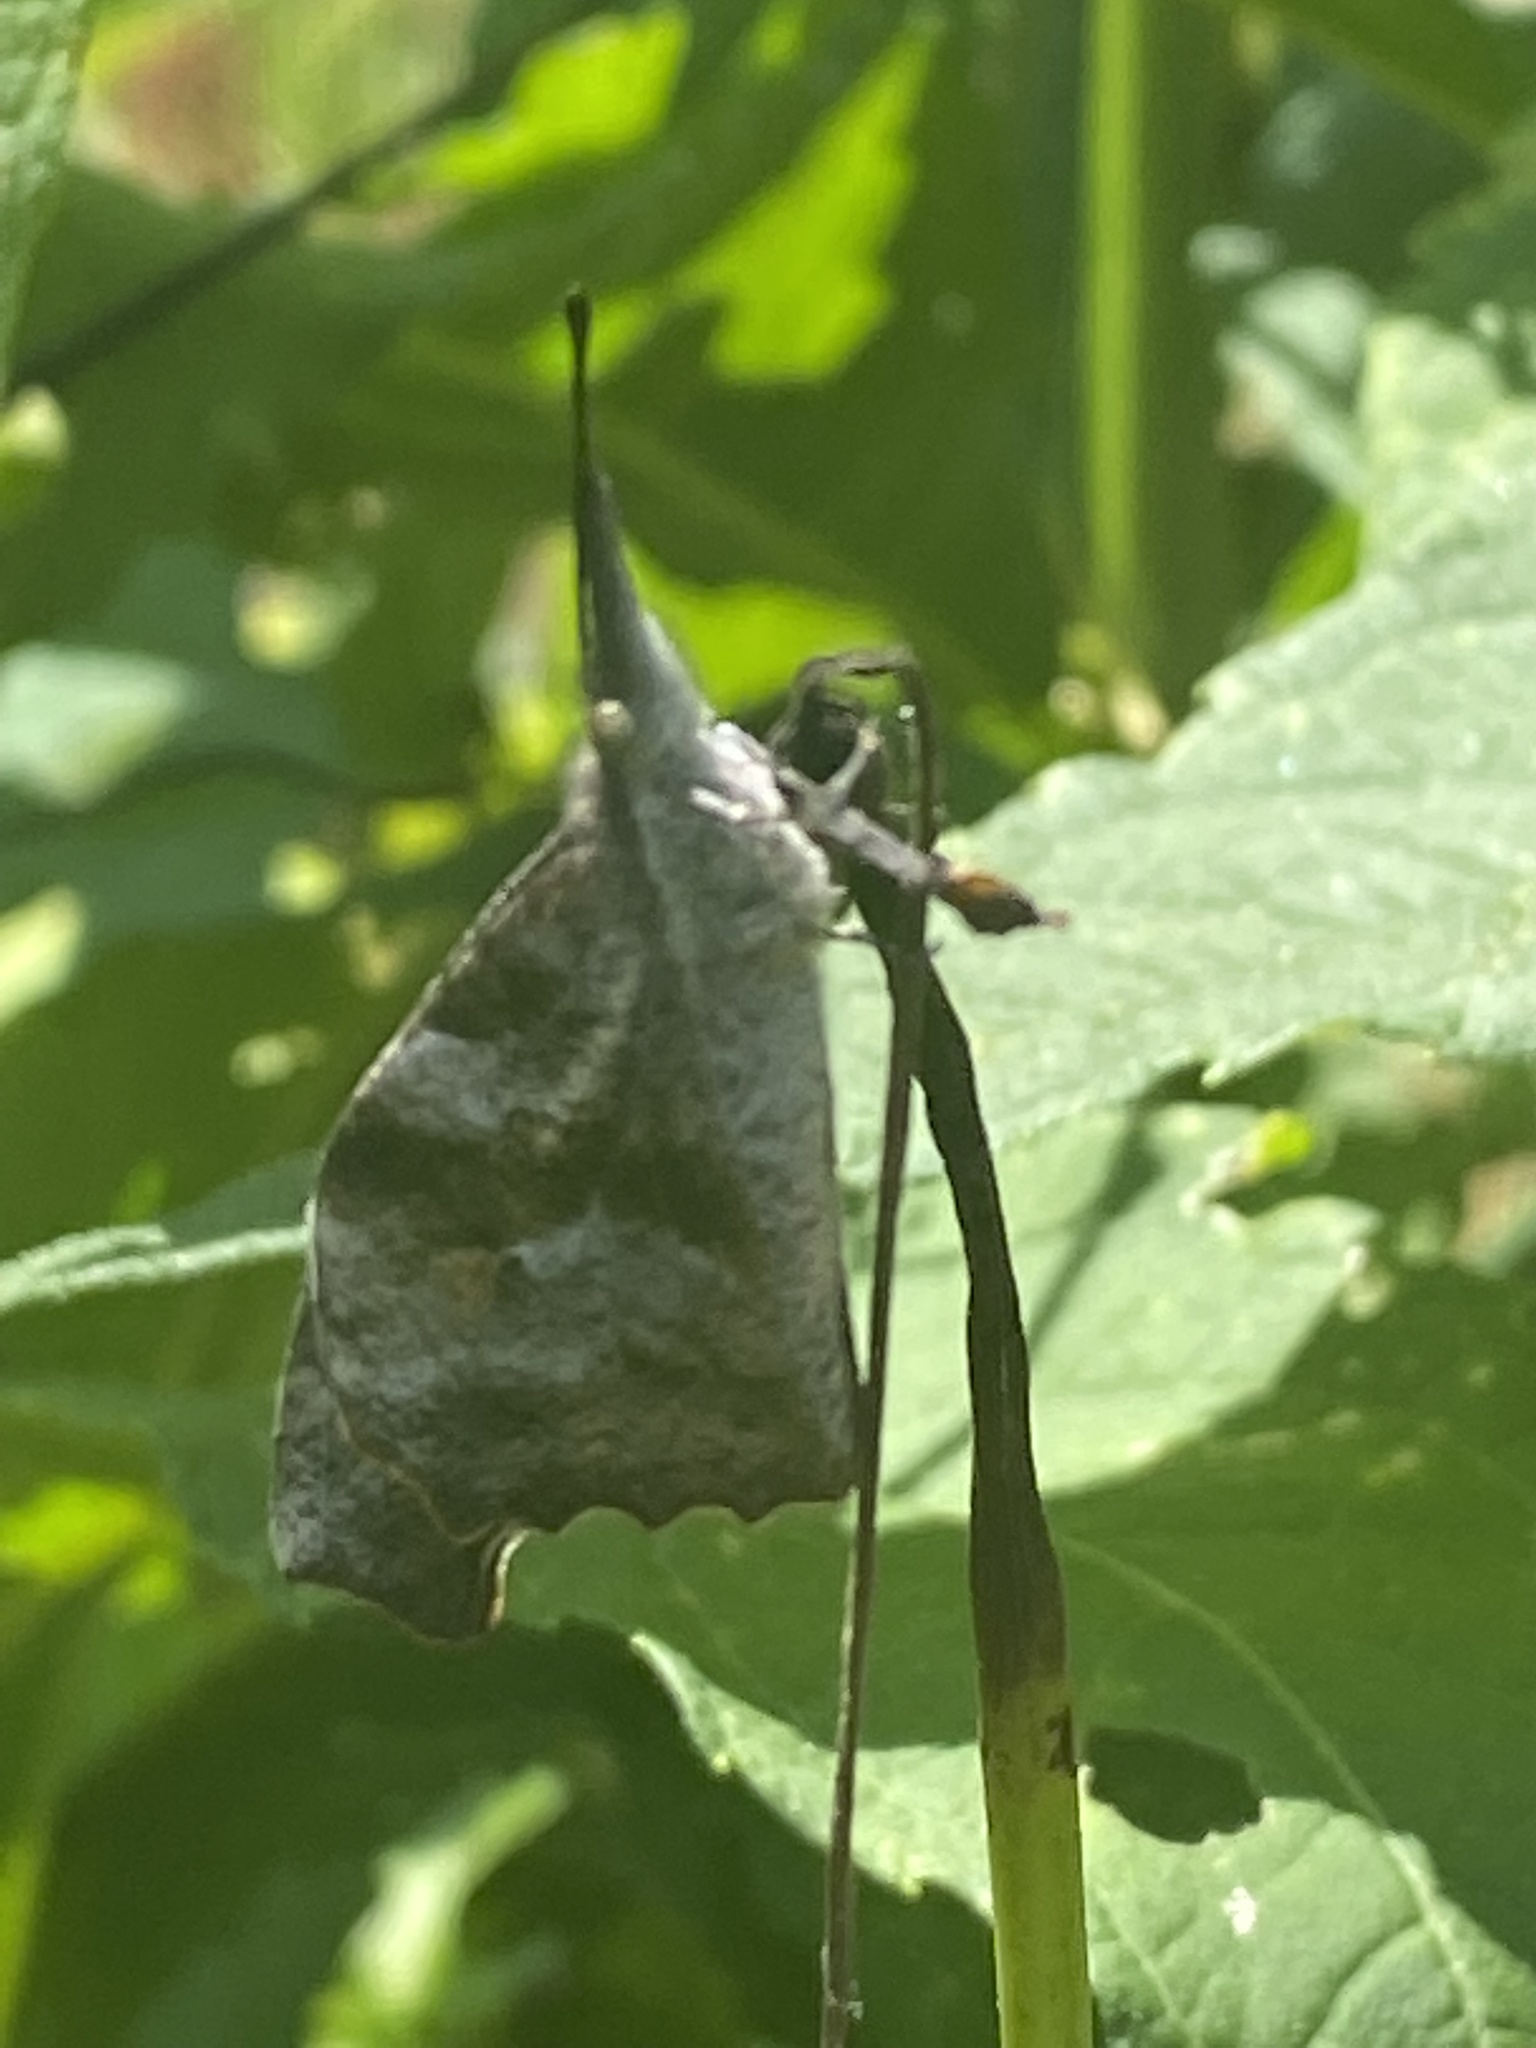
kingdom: Animalia
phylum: Arthropoda
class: Insecta
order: Lepidoptera
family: Nymphalidae
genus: Libytheana
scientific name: Libytheana carinenta
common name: American snout
